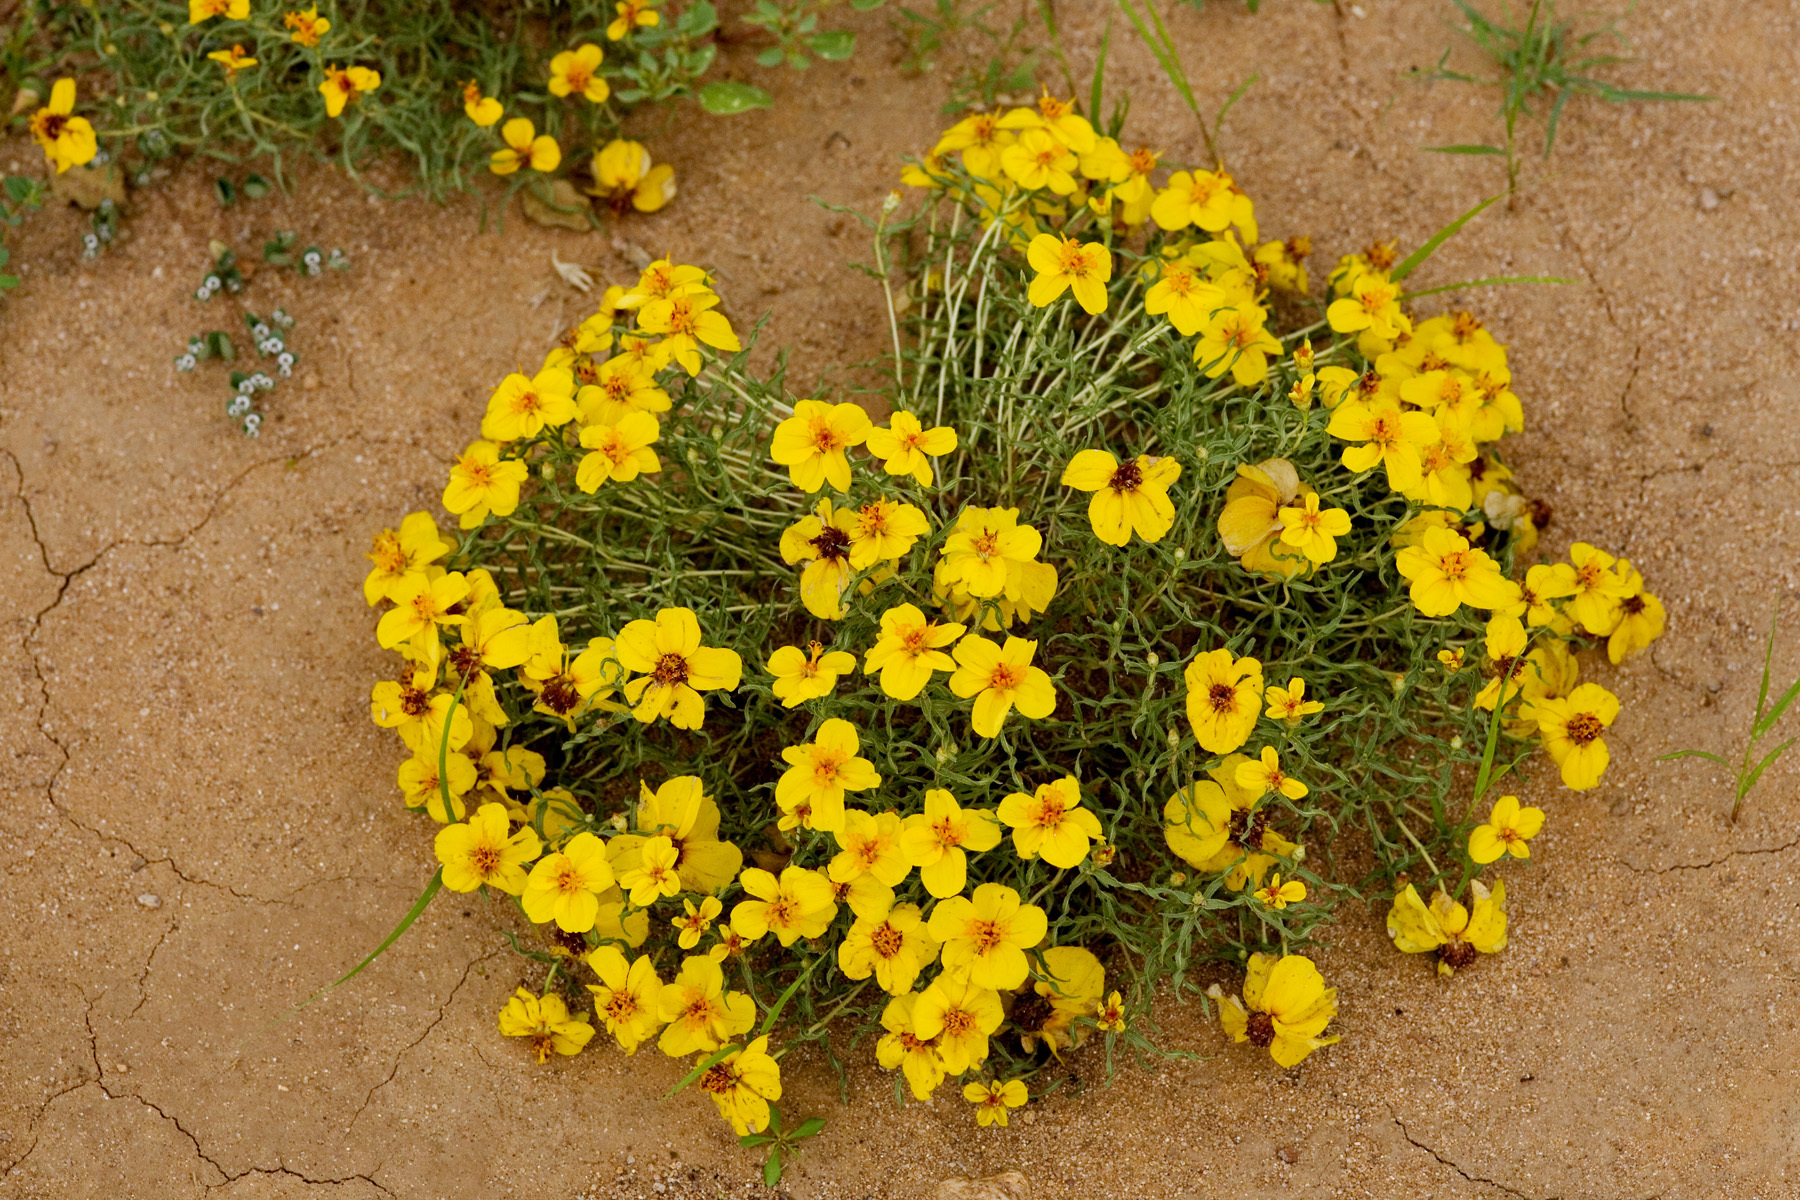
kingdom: Plantae
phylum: Tracheophyta
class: Magnoliopsida
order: Asterales
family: Asteraceae
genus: Zinnia
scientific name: Zinnia grandiflora
